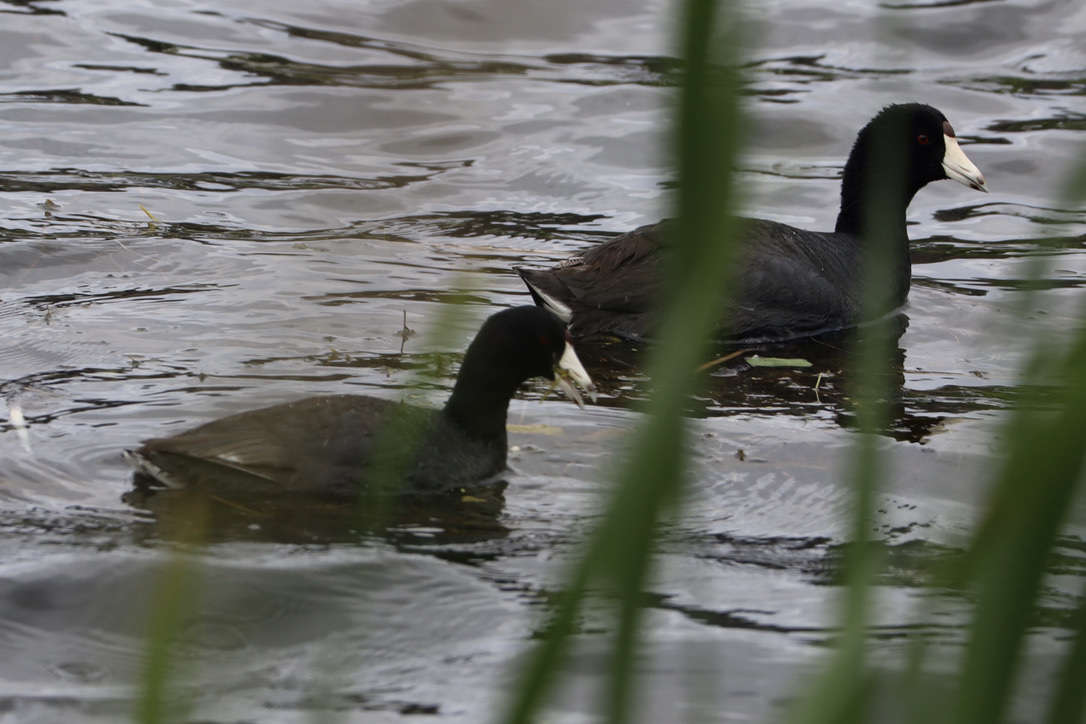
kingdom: Animalia
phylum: Chordata
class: Aves
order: Gruiformes
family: Rallidae
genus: Fulica
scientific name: Fulica americana
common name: American coot
